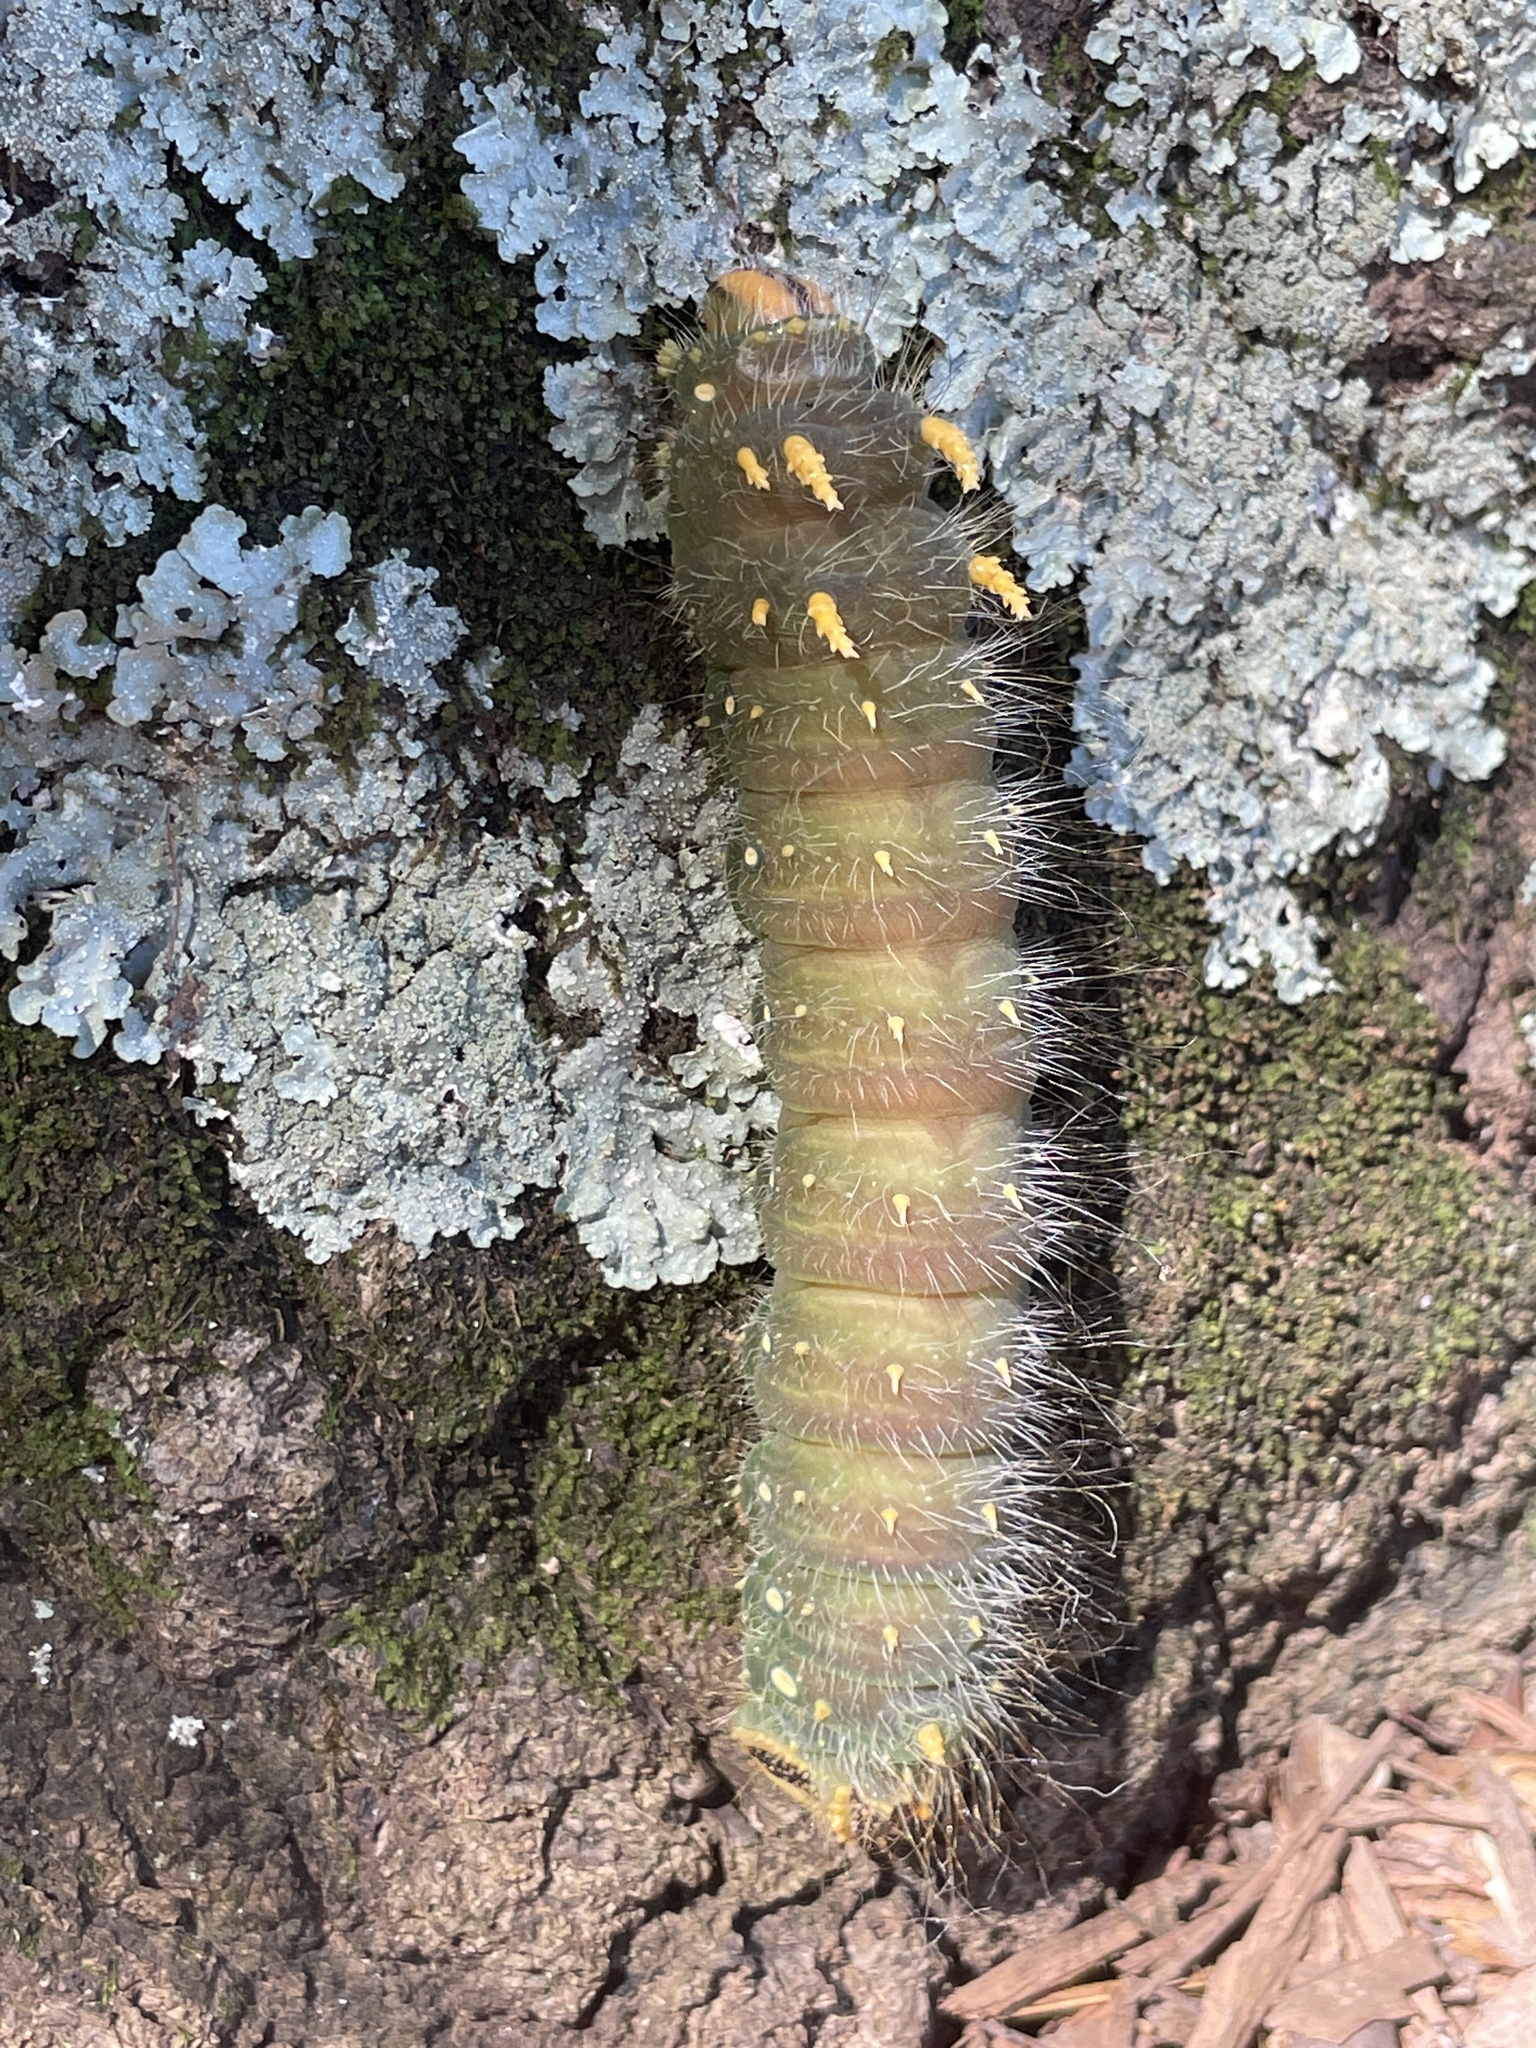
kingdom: Animalia
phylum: Arthropoda
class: Insecta
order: Lepidoptera
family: Saturniidae
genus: Eacles
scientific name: Eacles imperialis
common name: Imperial moth
